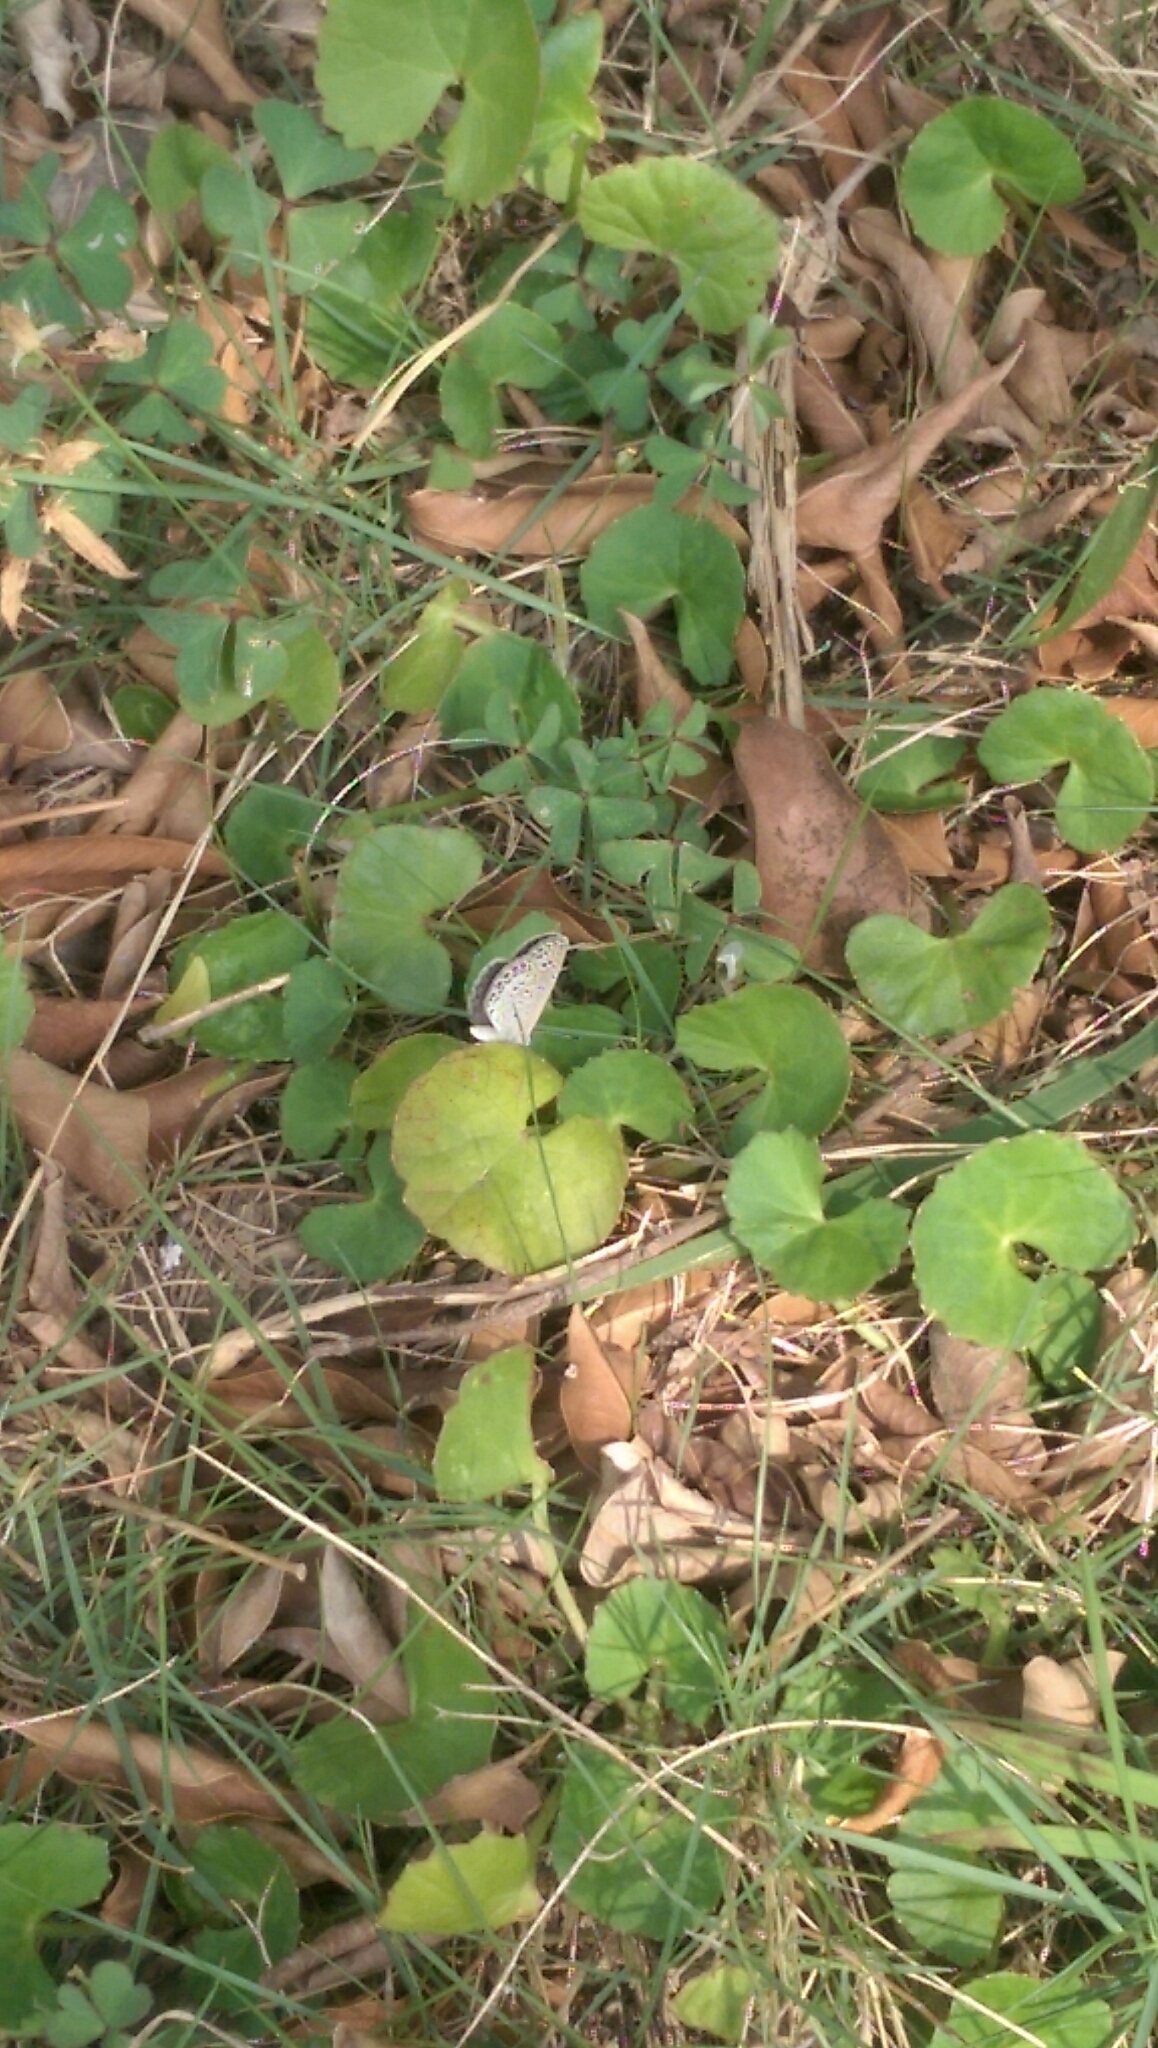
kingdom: Plantae
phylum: Tracheophyta
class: Magnoliopsida
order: Apiales
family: Apiaceae
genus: Centella
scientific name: Centella asiatica
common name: Spadeleaf
